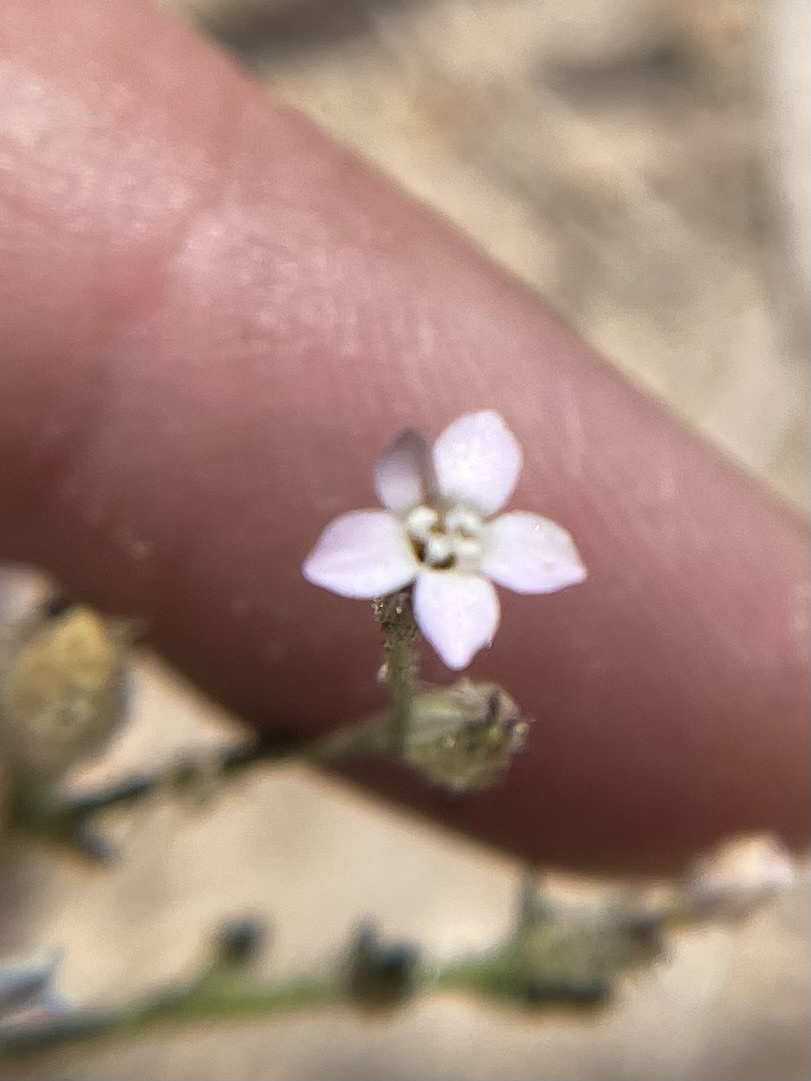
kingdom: Plantae
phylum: Tracheophyta
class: Magnoliopsida
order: Ericales
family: Polemoniaceae
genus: Gilia
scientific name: Gilia sinuata
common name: Rosy gilia
